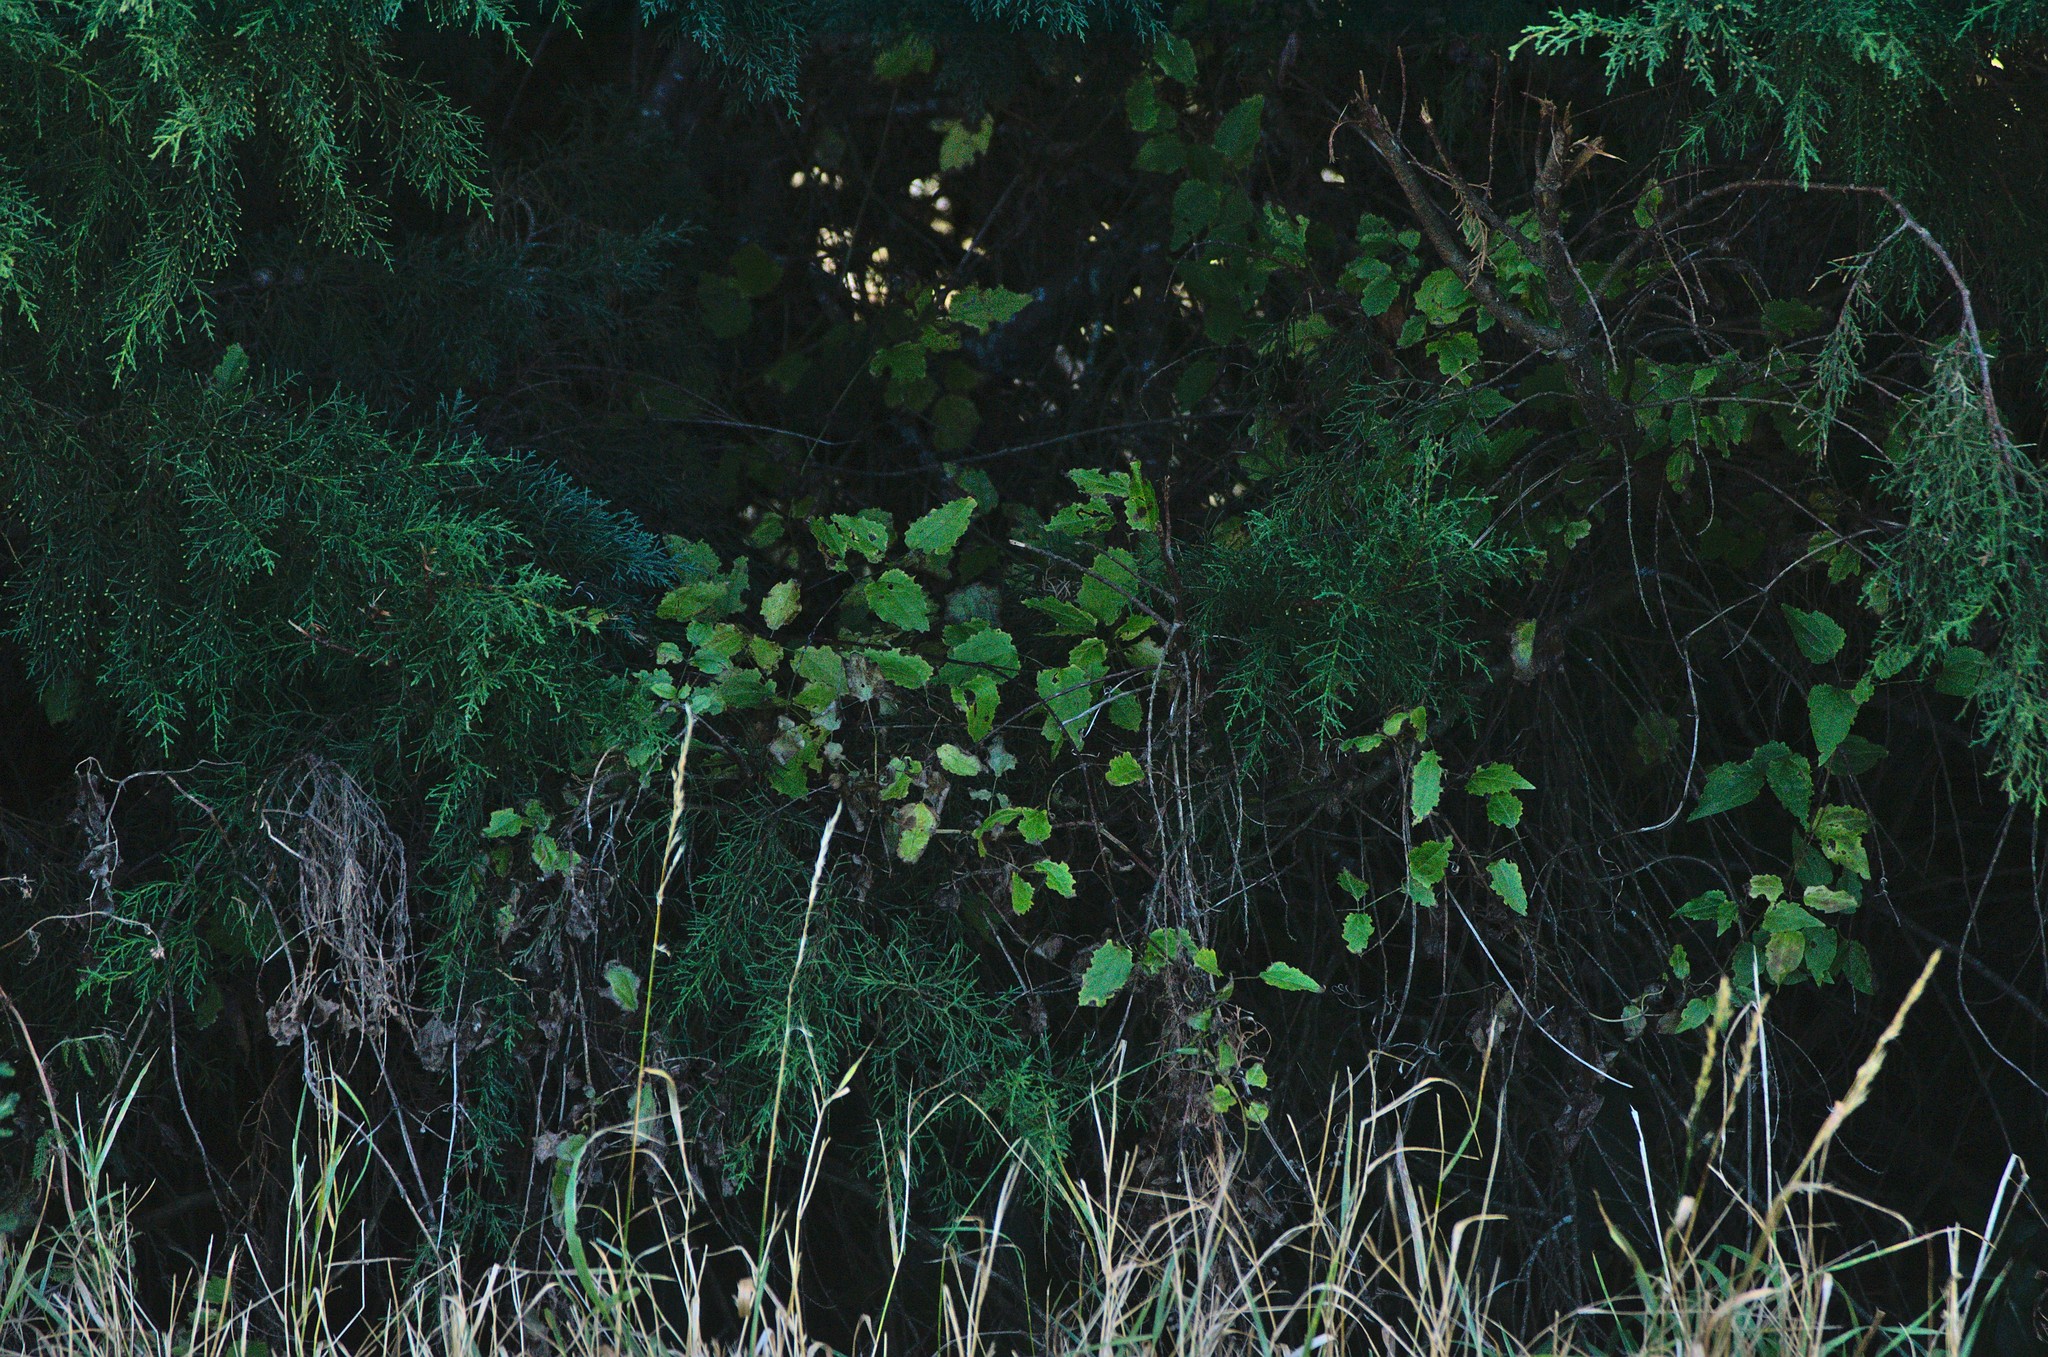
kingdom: Plantae
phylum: Tracheophyta
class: Magnoliopsida
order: Ranunculales
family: Ranunculaceae
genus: Clematis
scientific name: Clematis vitalba
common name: Evergreen clematis
